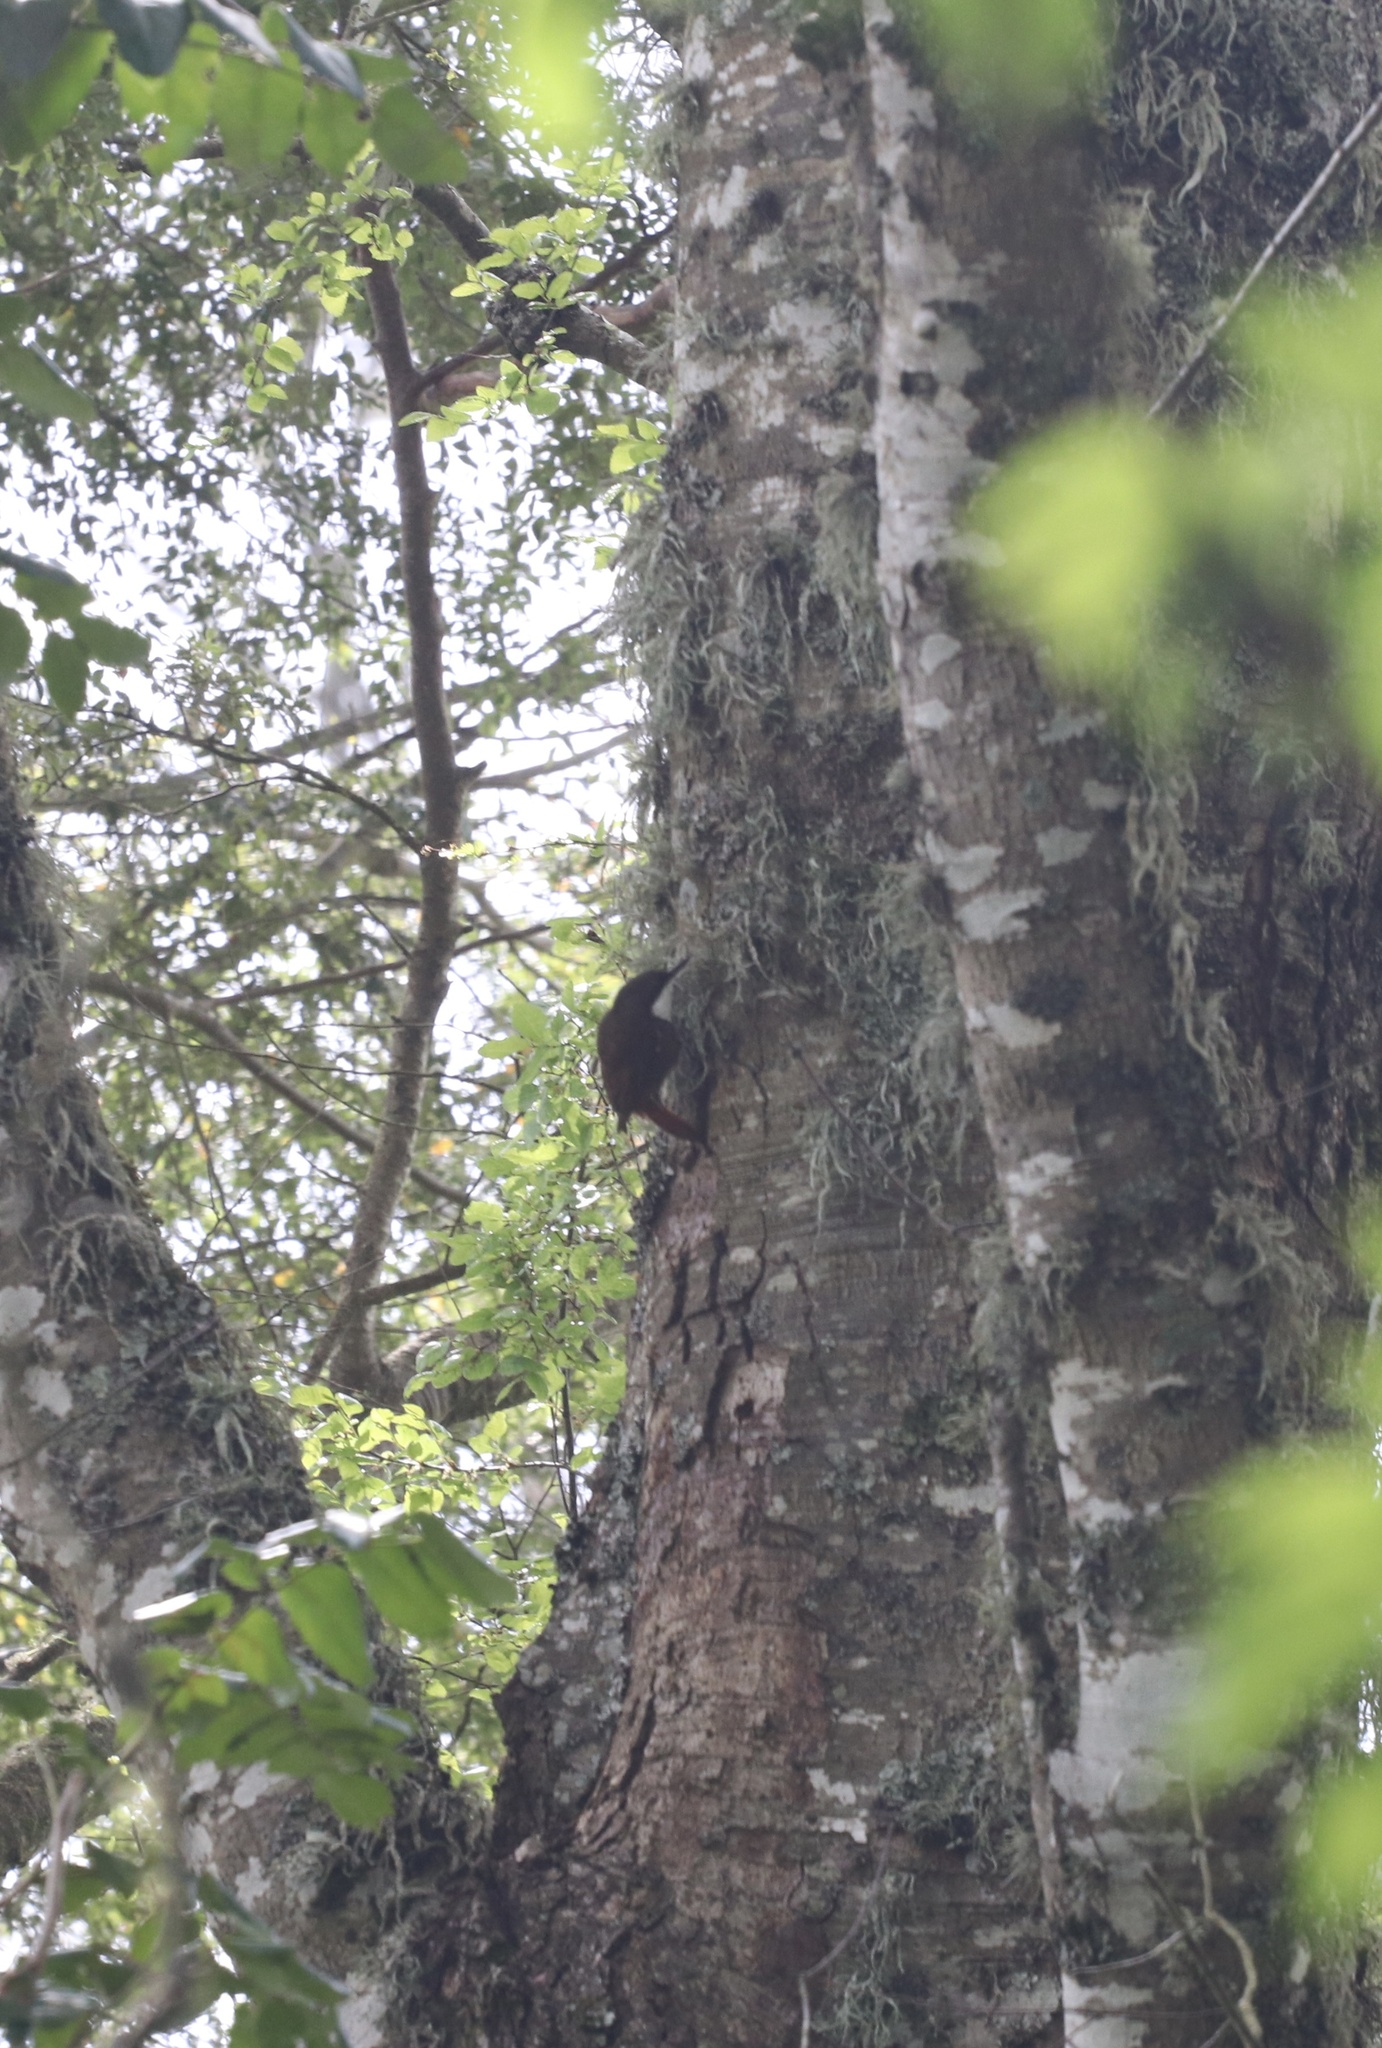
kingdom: Animalia
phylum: Chordata
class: Aves
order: Passeriformes
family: Furnariidae
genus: Pygarrhichas
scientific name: Pygarrhichas albogularis
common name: White-throated treerunner
